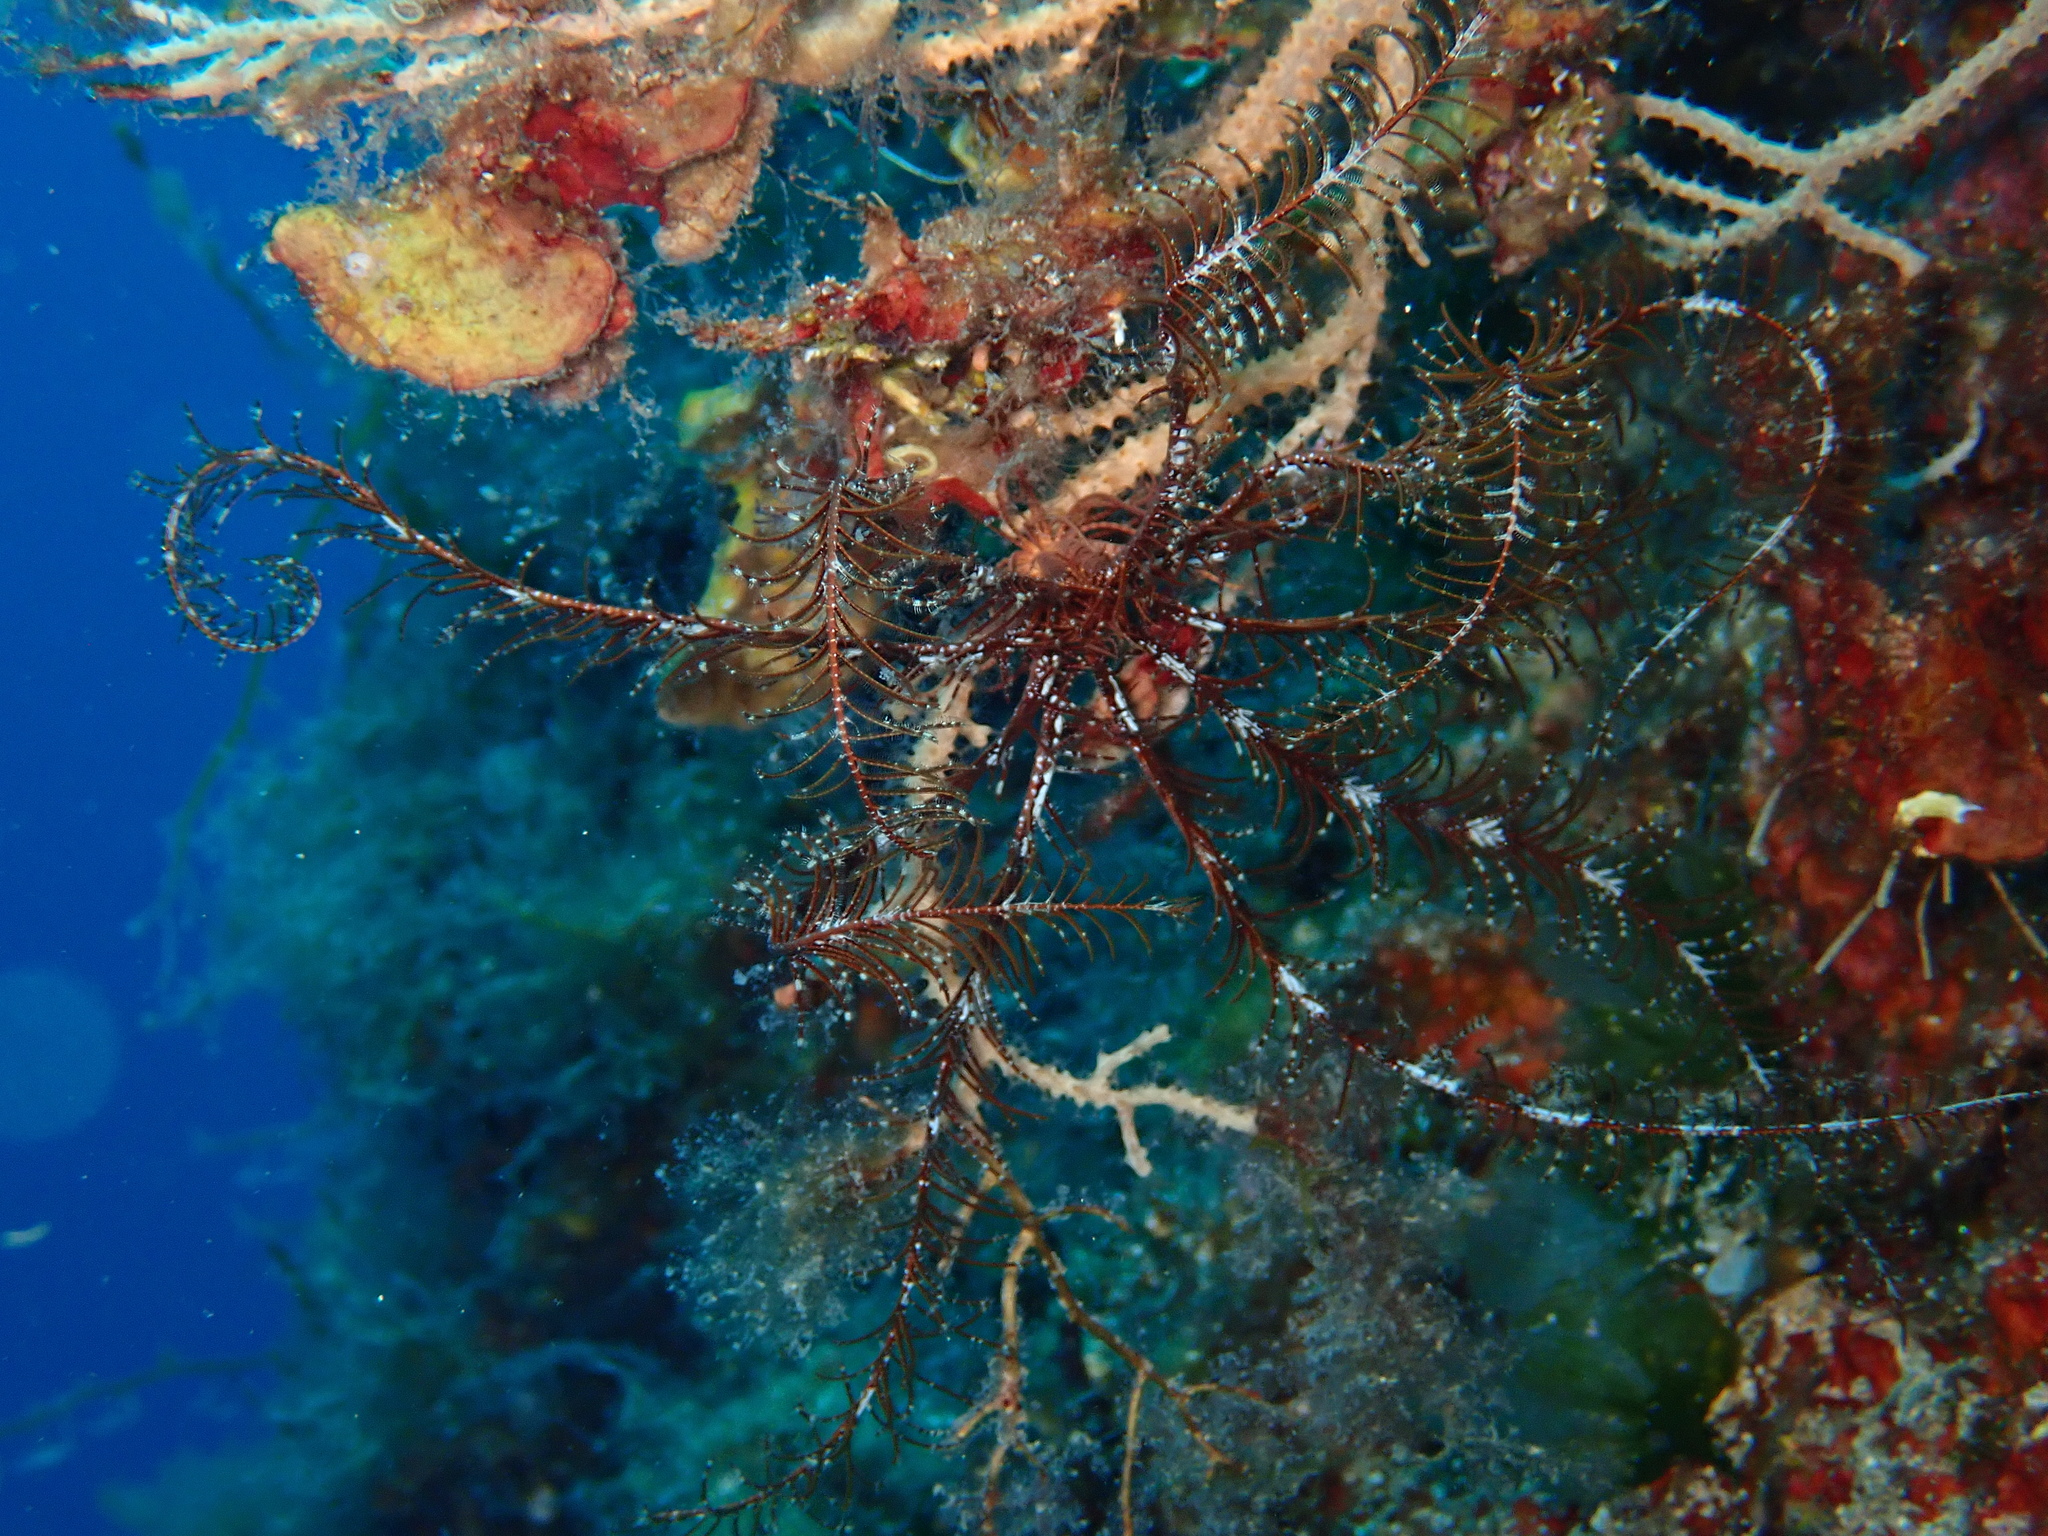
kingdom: Animalia
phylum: Echinodermata
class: Crinoidea
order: Comatulida
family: Antedonidae
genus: Antedon
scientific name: Antedon mediterranea
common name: Feather star
